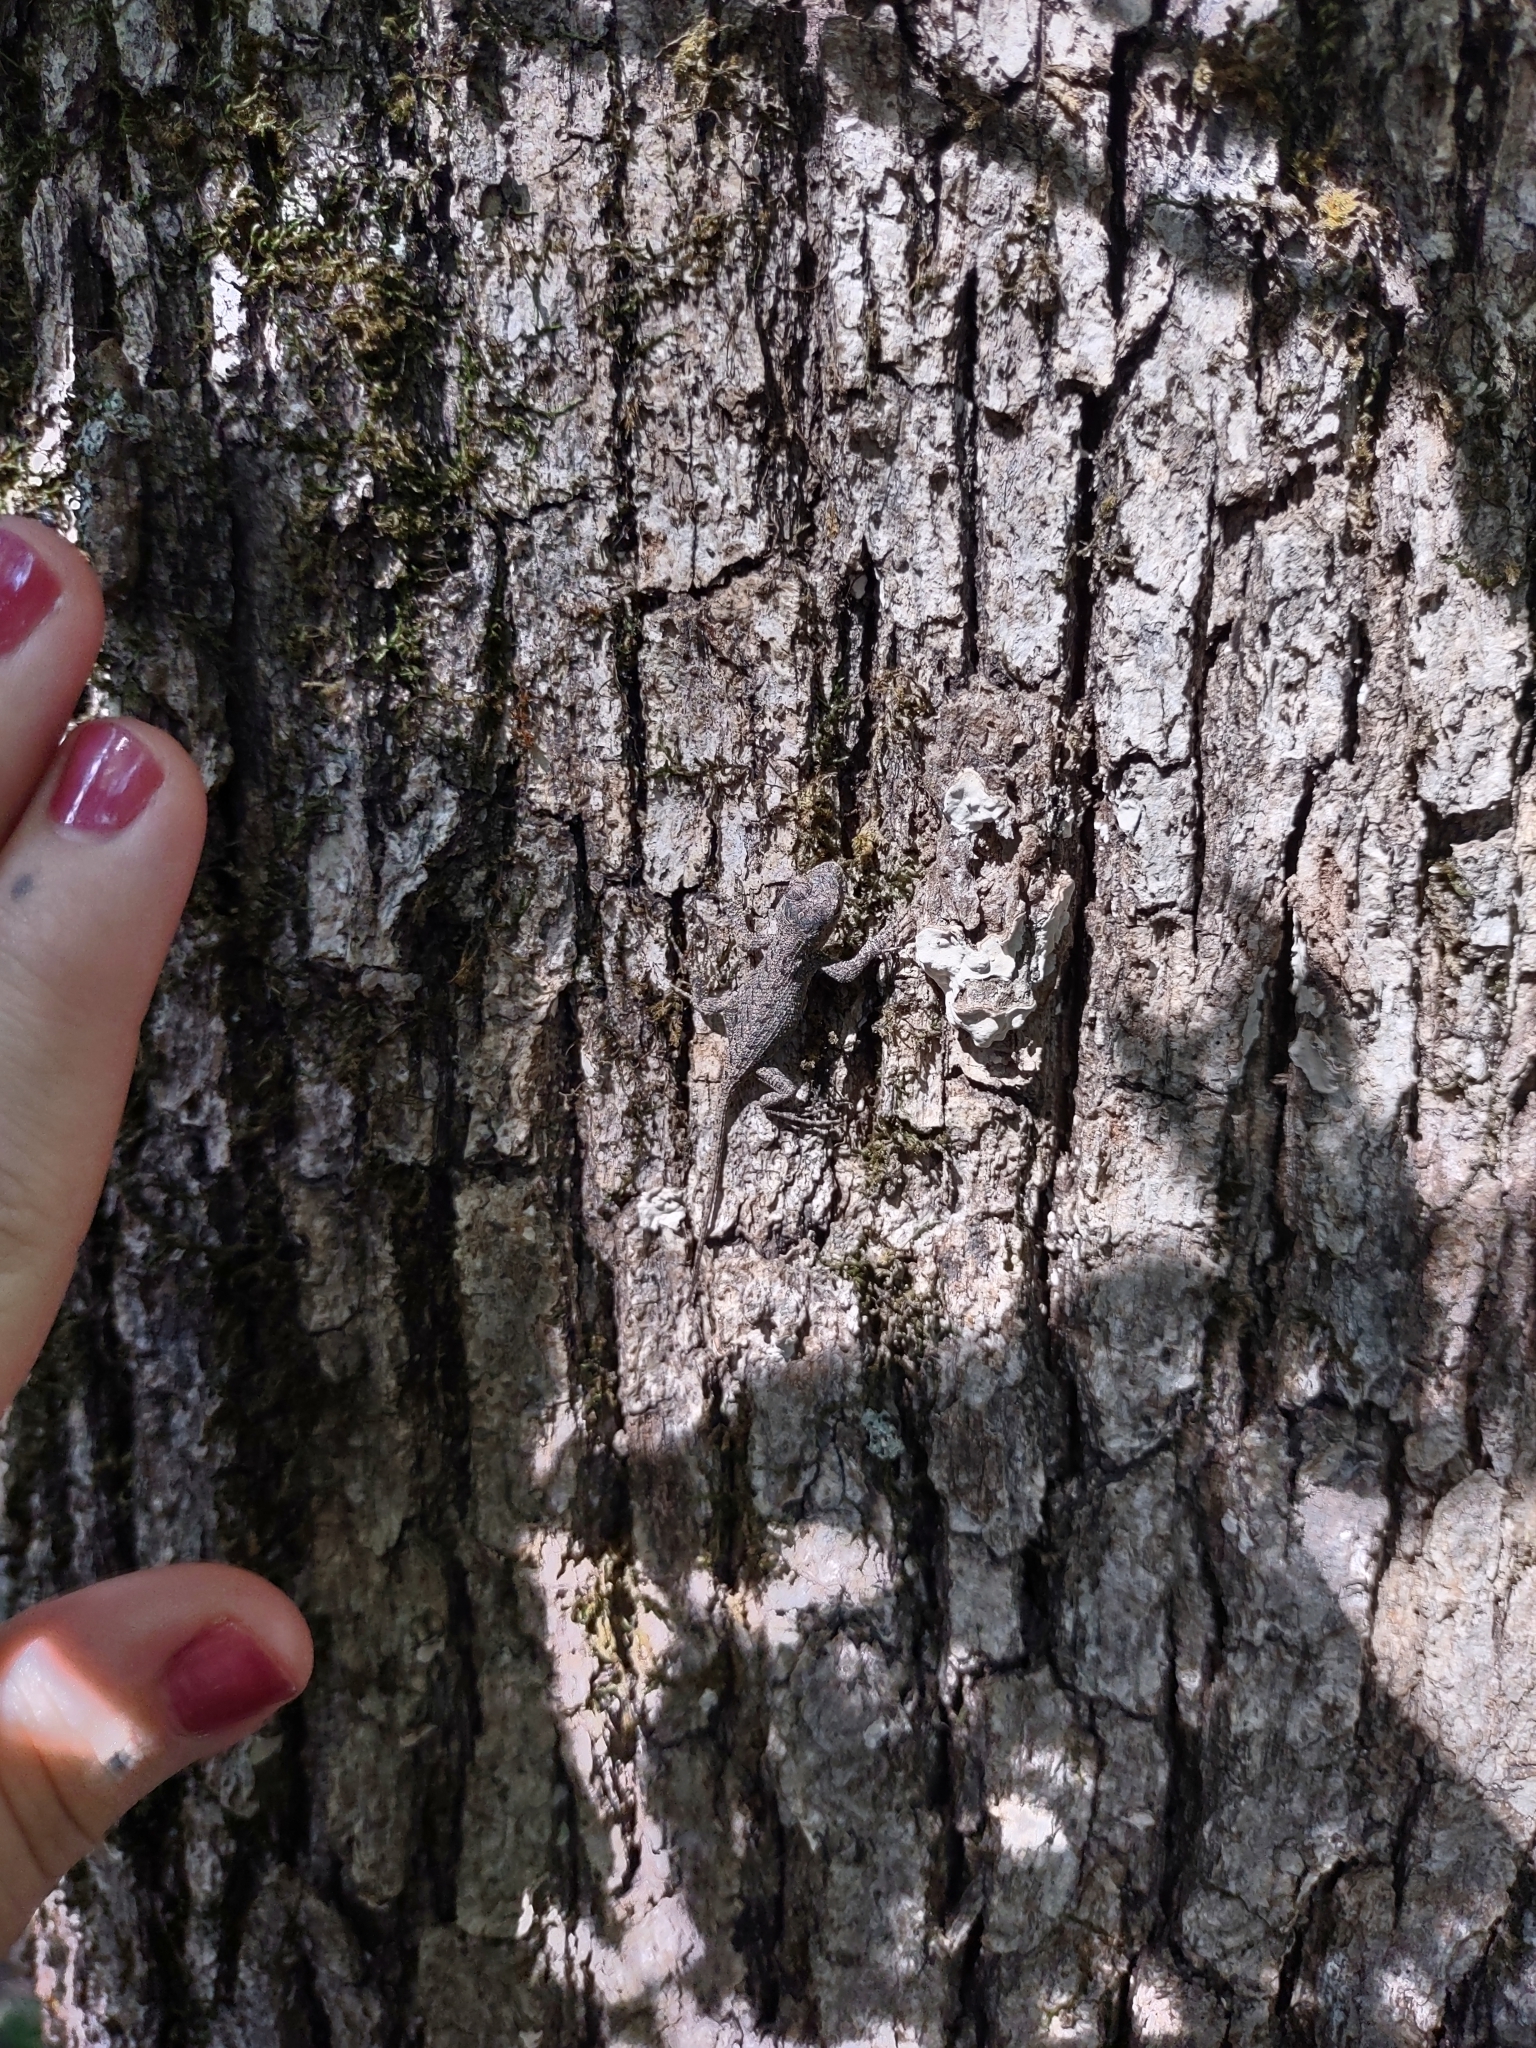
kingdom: Animalia
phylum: Chordata
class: Squamata
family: Phrynosomatidae
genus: Sceloporus
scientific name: Sceloporus undulatus
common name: Eastern fence lizard
